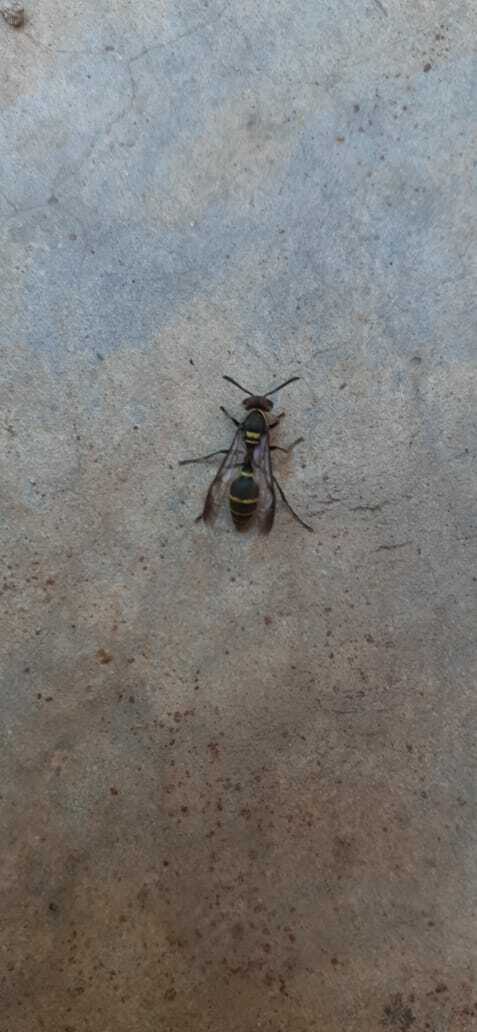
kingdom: Animalia
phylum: Arthropoda
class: Insecta
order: Hymenoptera
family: Eumenidae
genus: Polybia
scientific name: Polybia ruficeps
